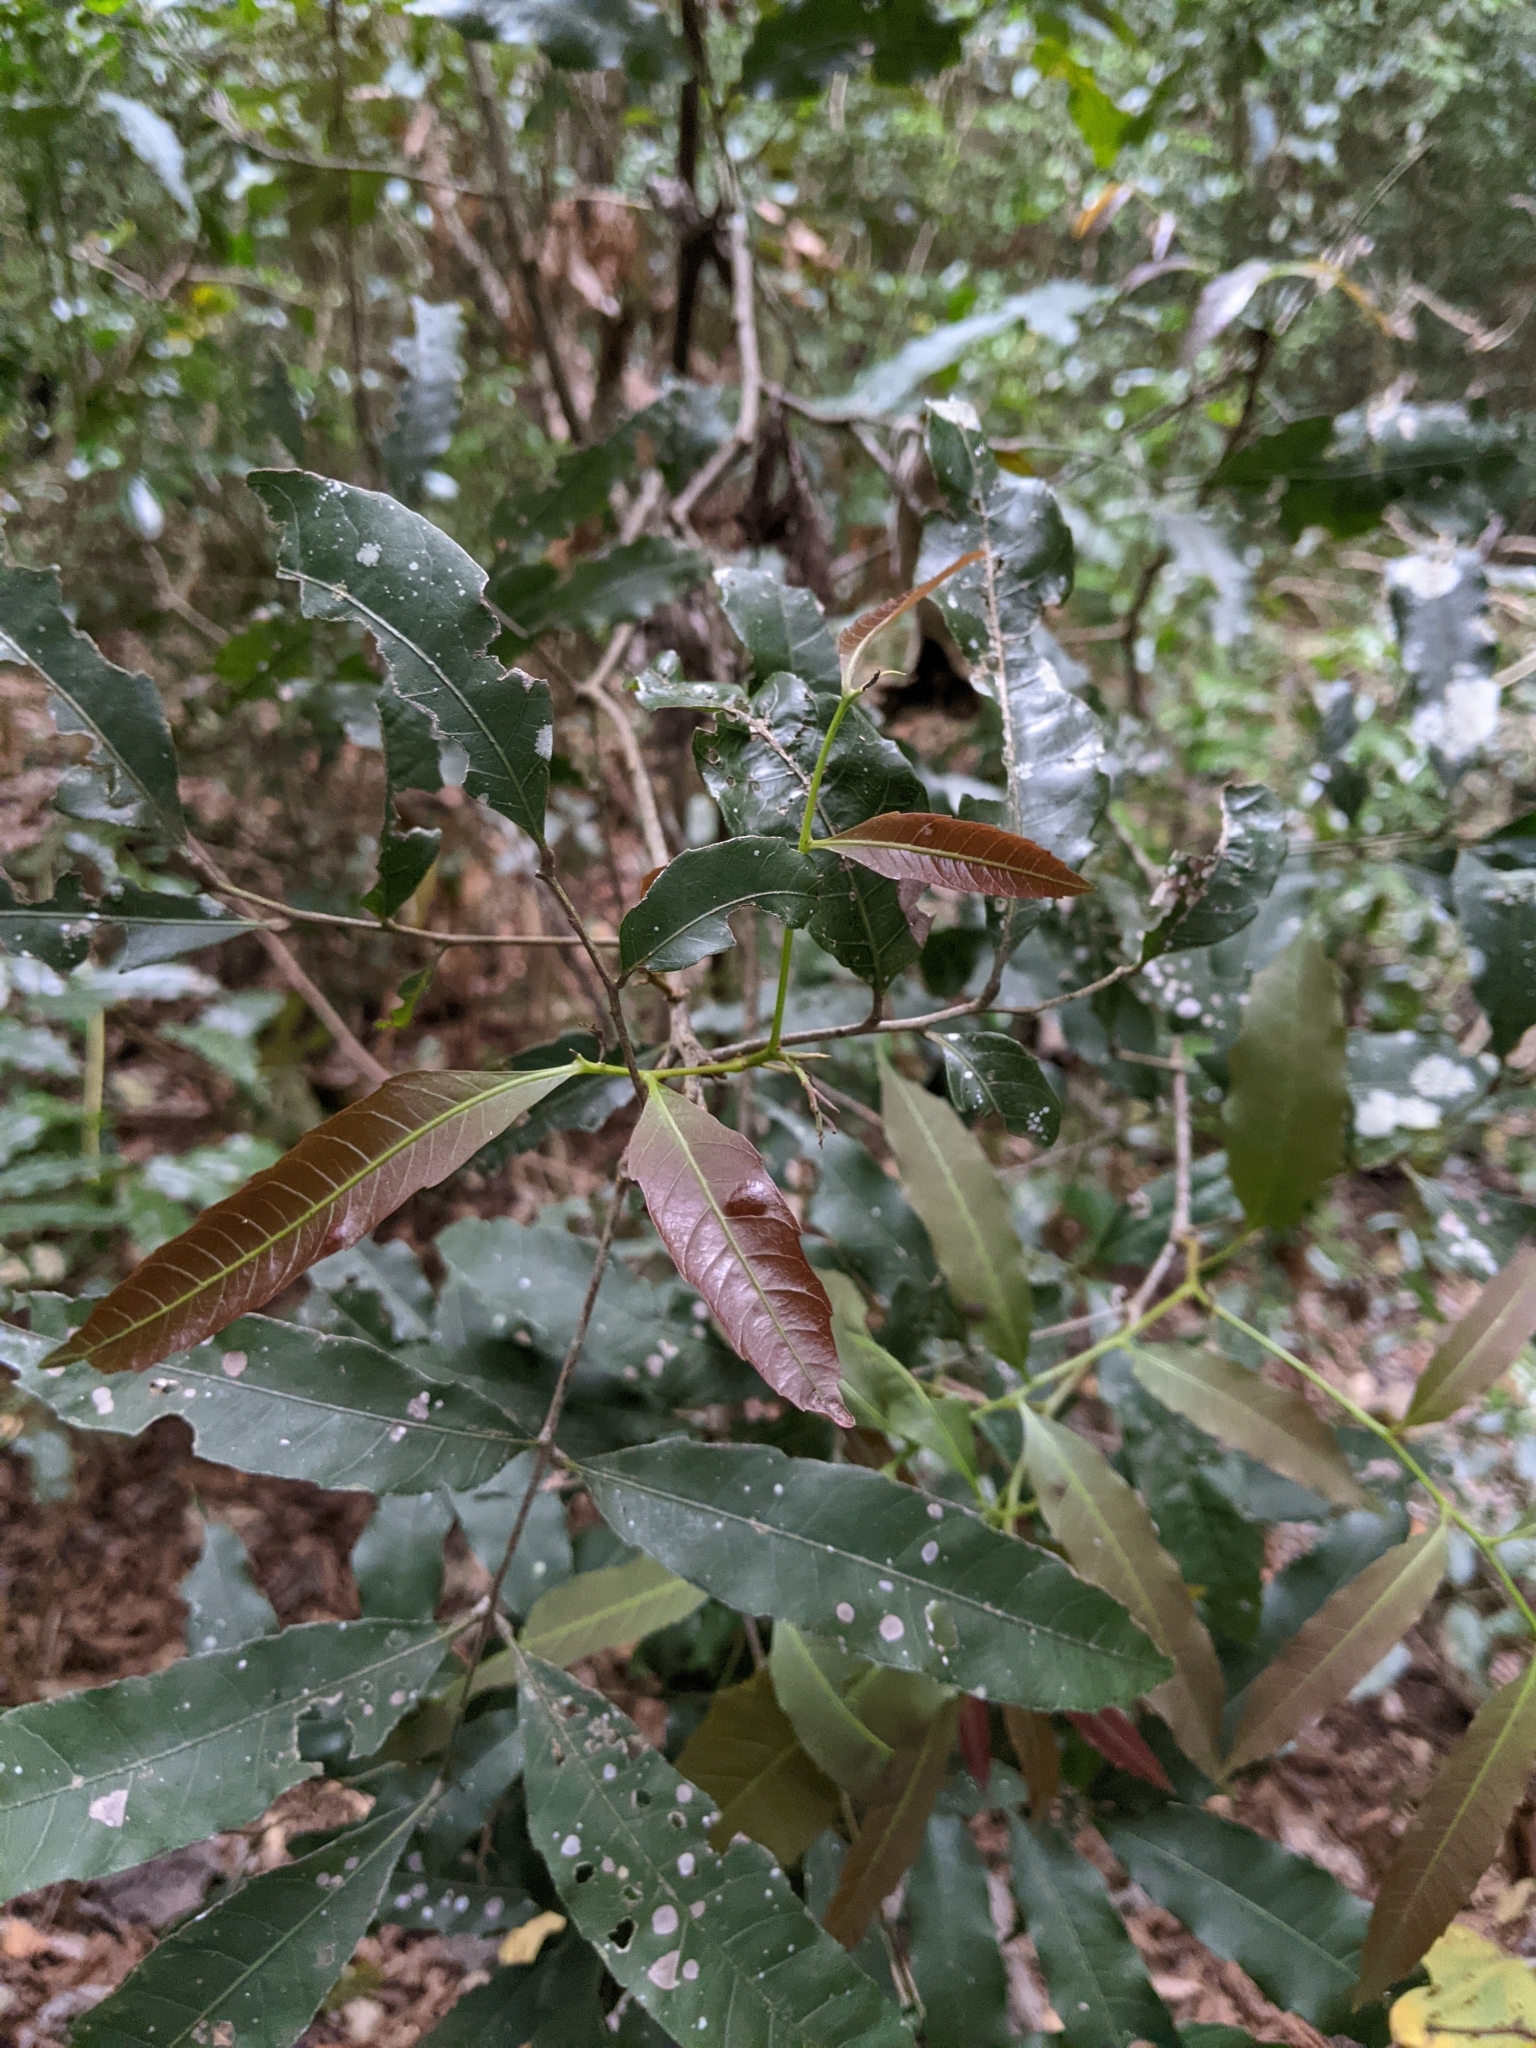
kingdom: Plantae
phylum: Tracheophyta
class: Magnoliopsida
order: Sapindales
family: Sapindaceae
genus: Elattostachys
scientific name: Elattostachys nervosa
